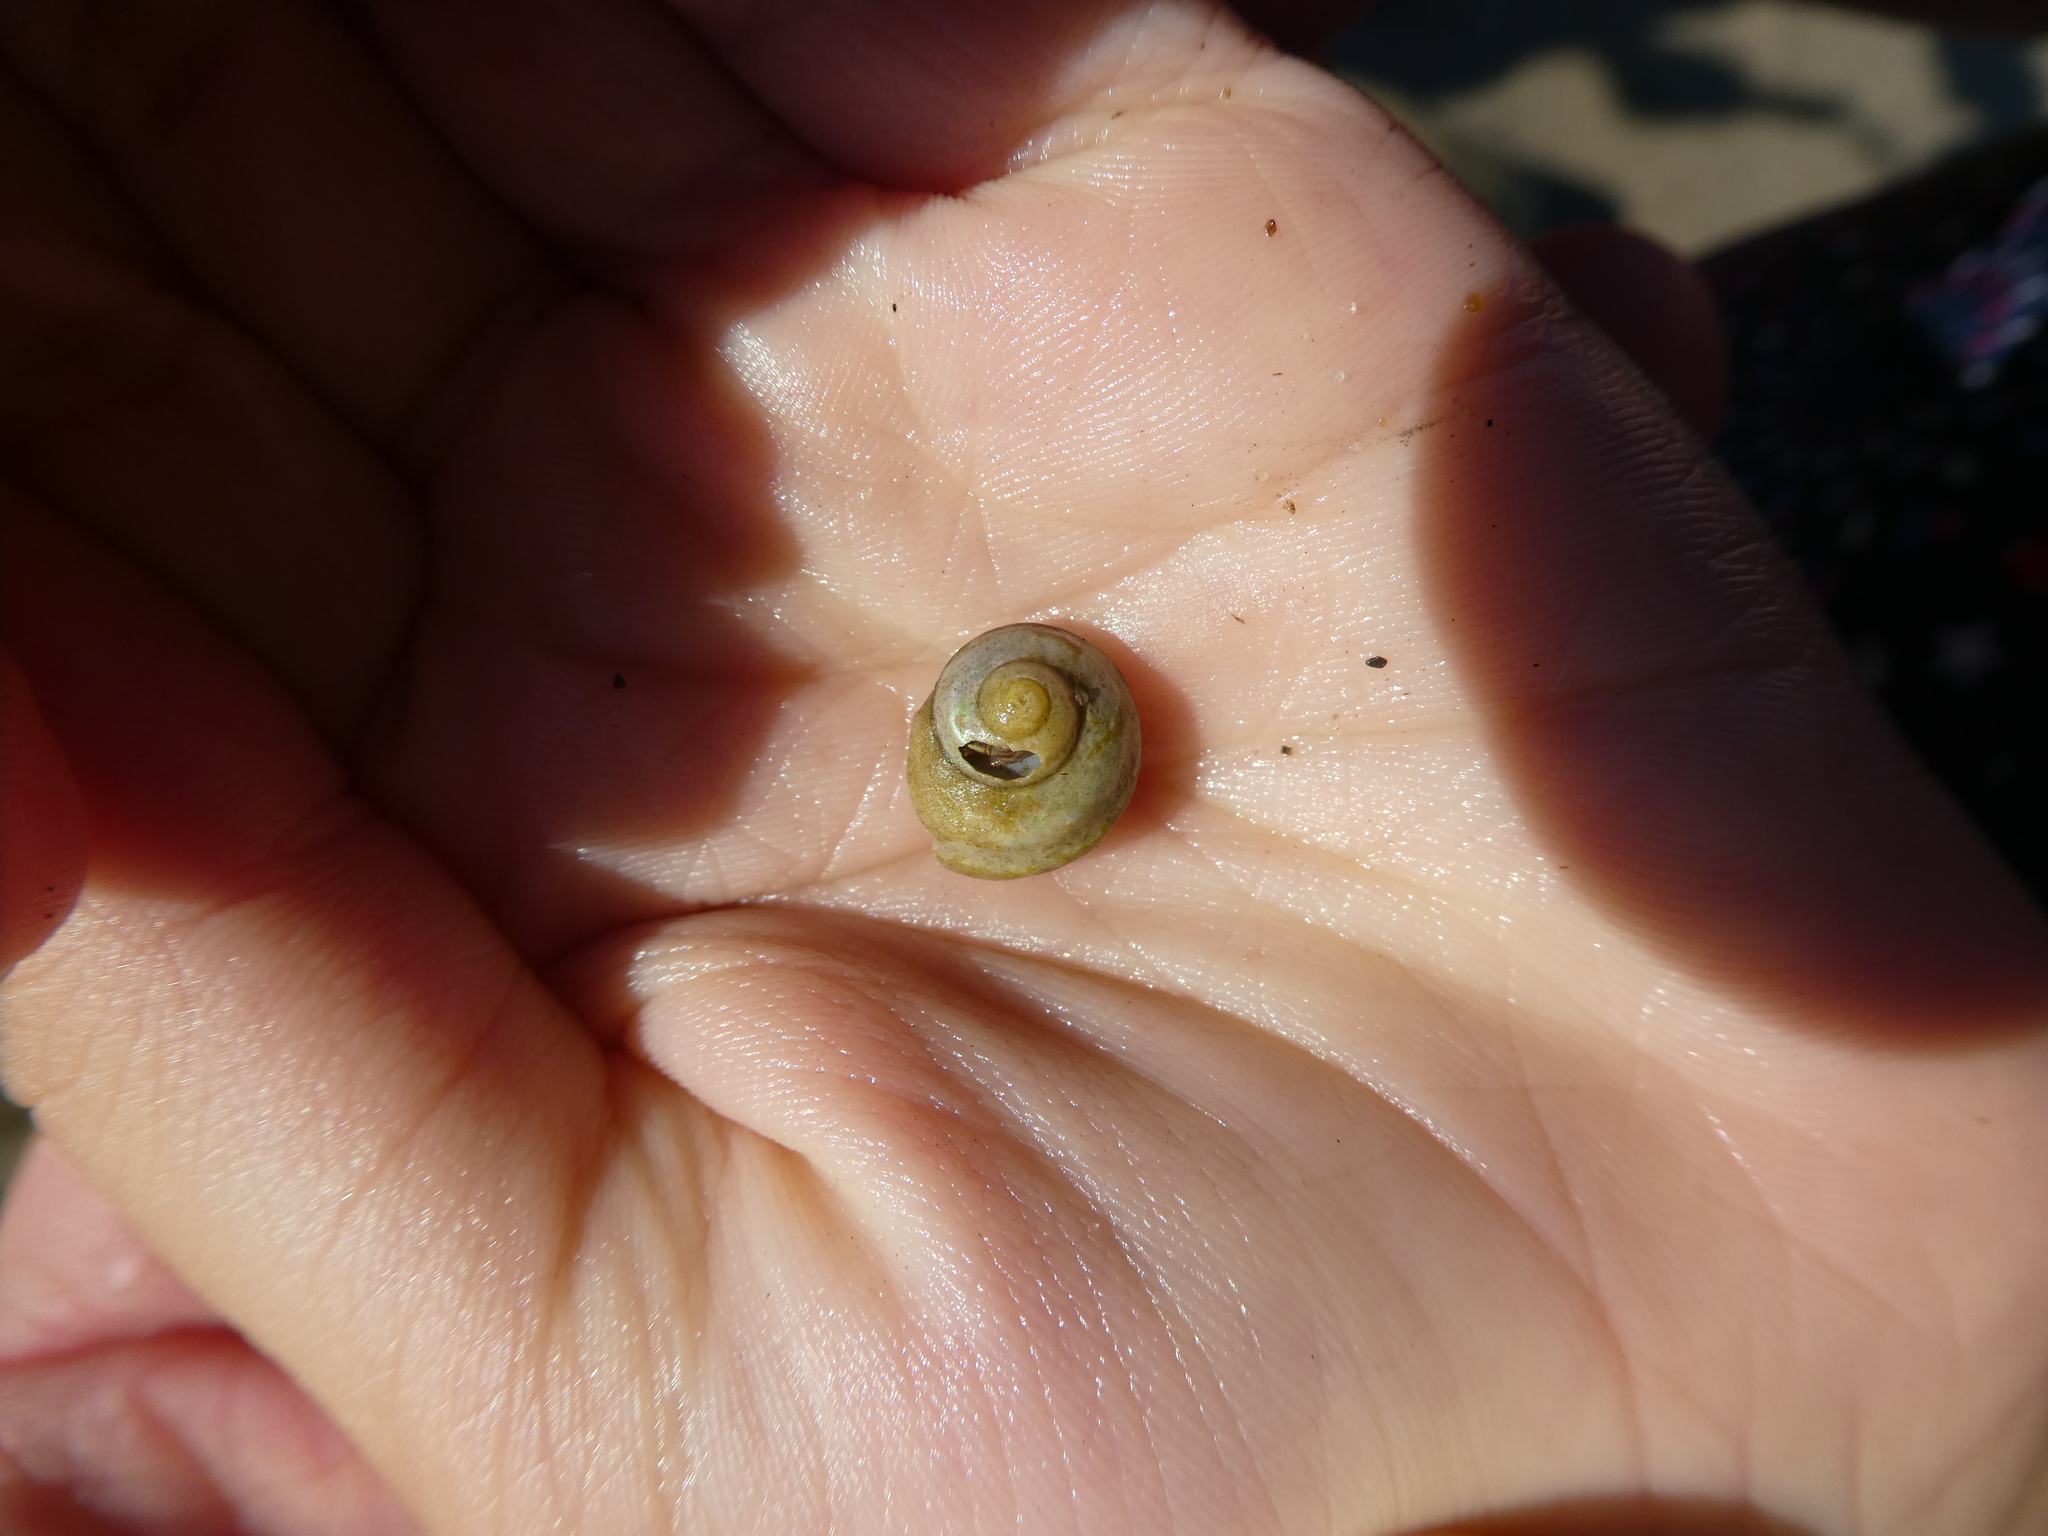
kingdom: Animalia
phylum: Mollusca
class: Gastropoda
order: Trochida
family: Tegulidae
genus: Tegula
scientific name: Tegula aureotincta
